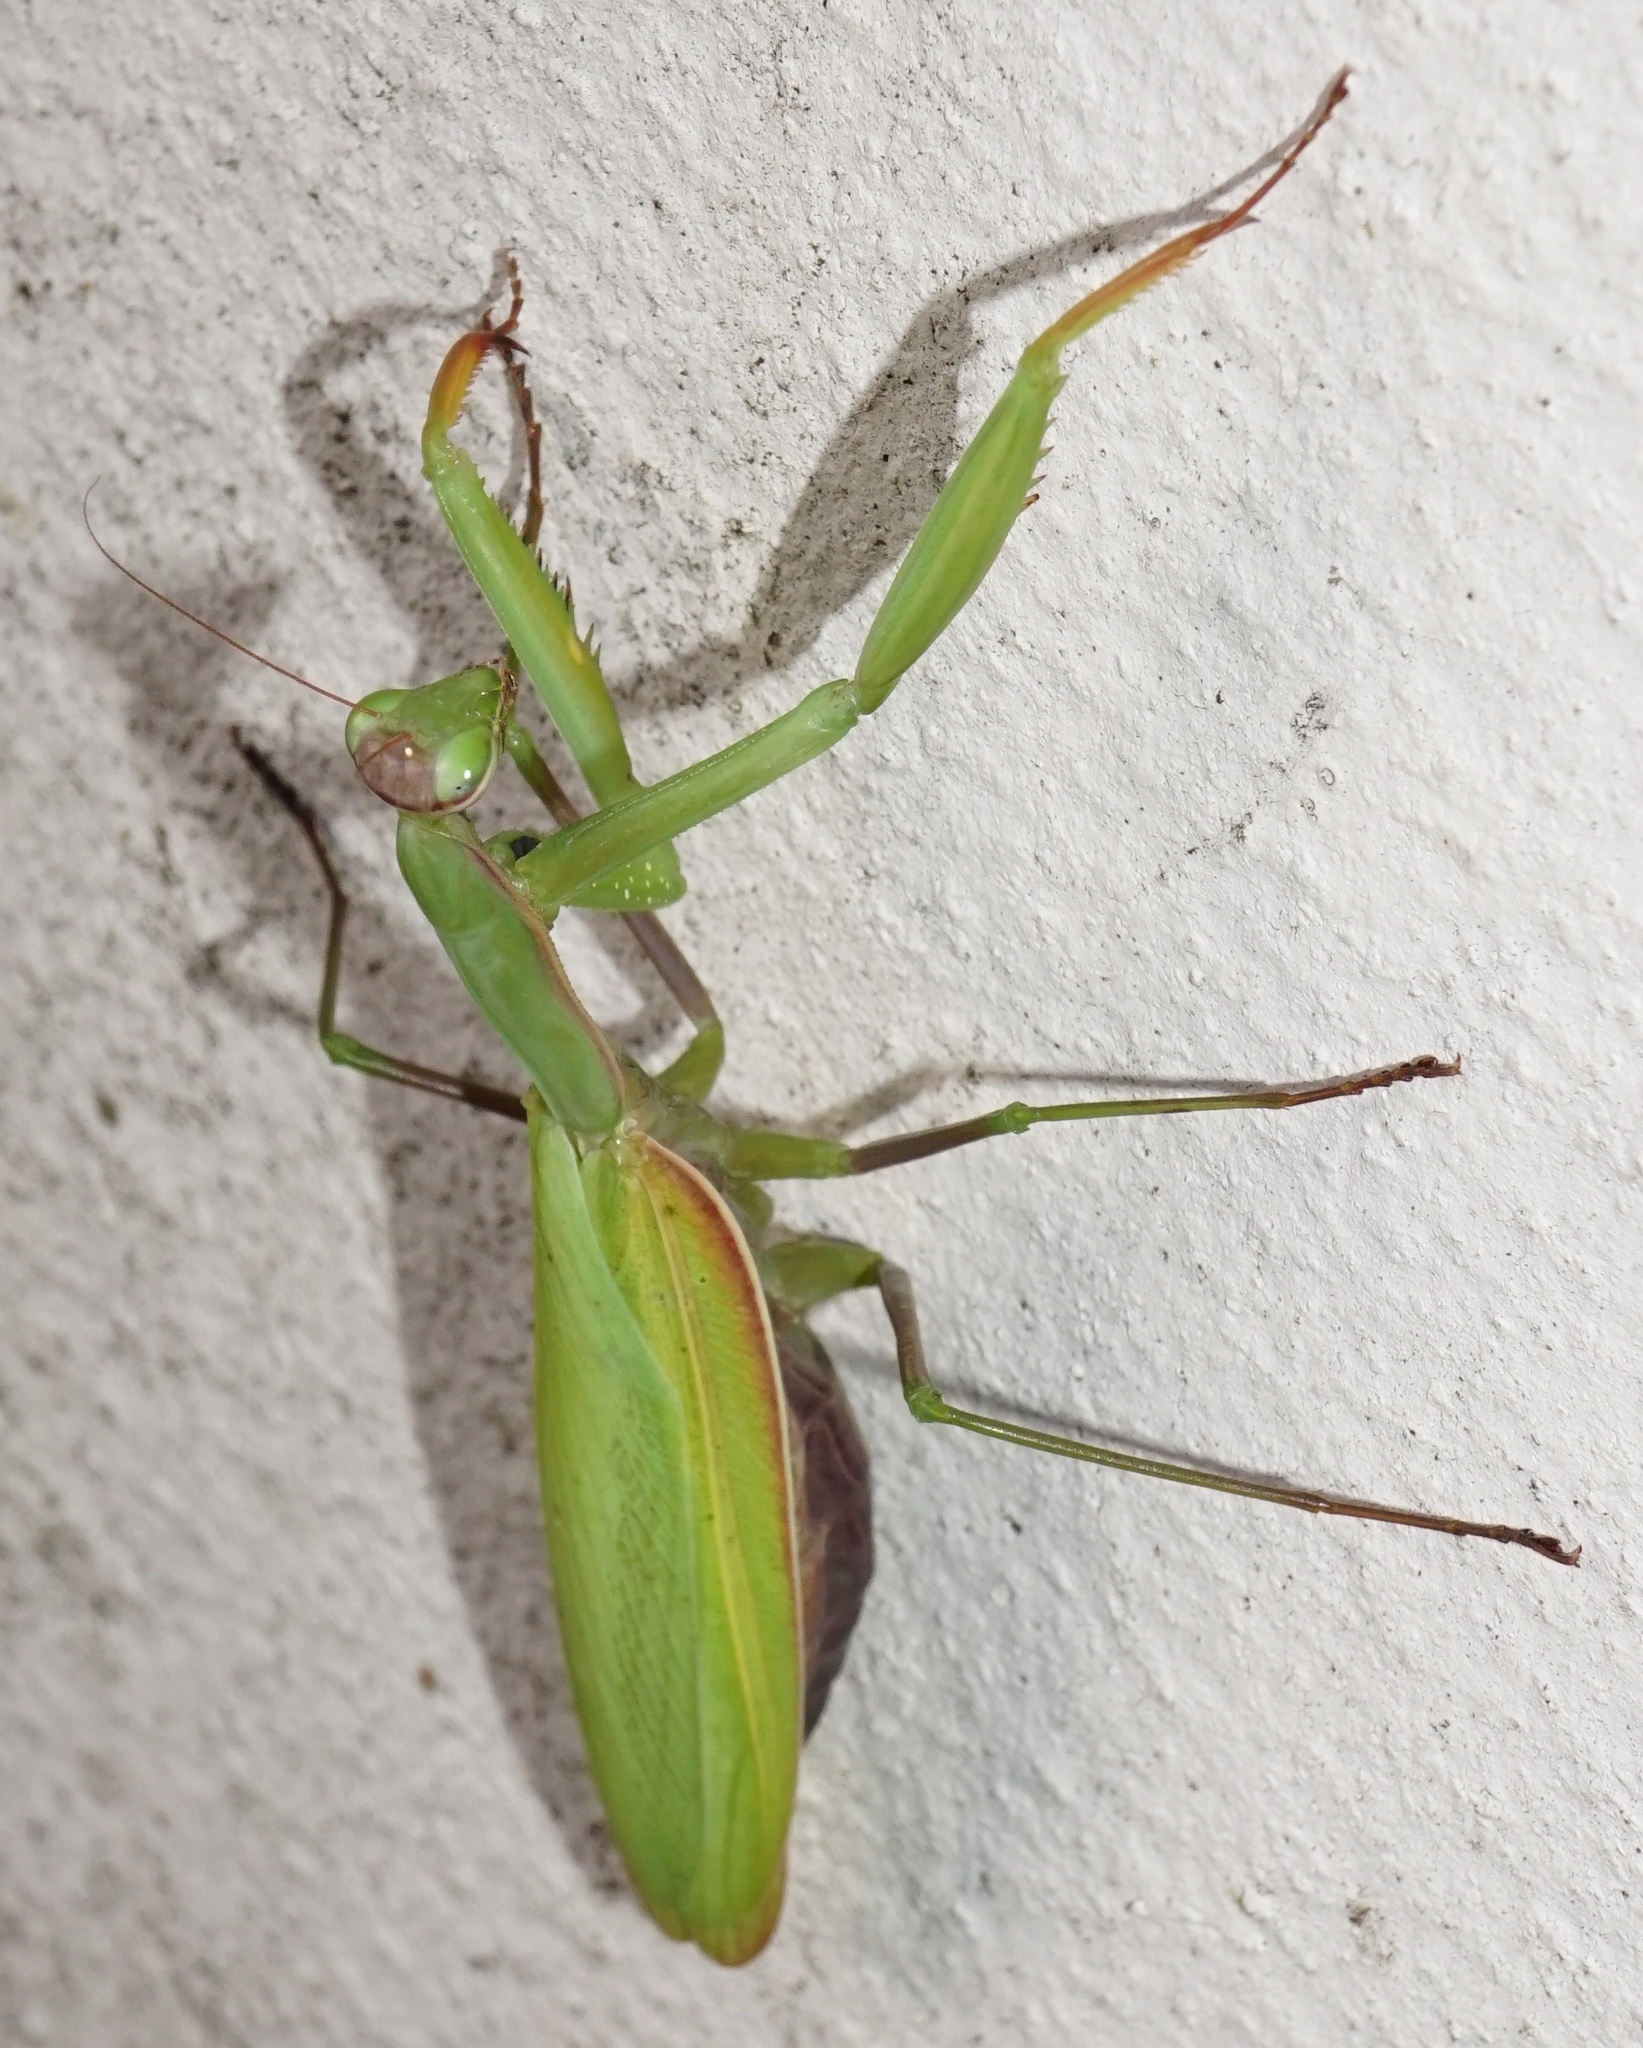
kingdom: Animalia
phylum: Arthropoda
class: Insecta
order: Mantodea
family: Mantidae
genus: Mantis
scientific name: Mantis religiosa
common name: Praying mantis
